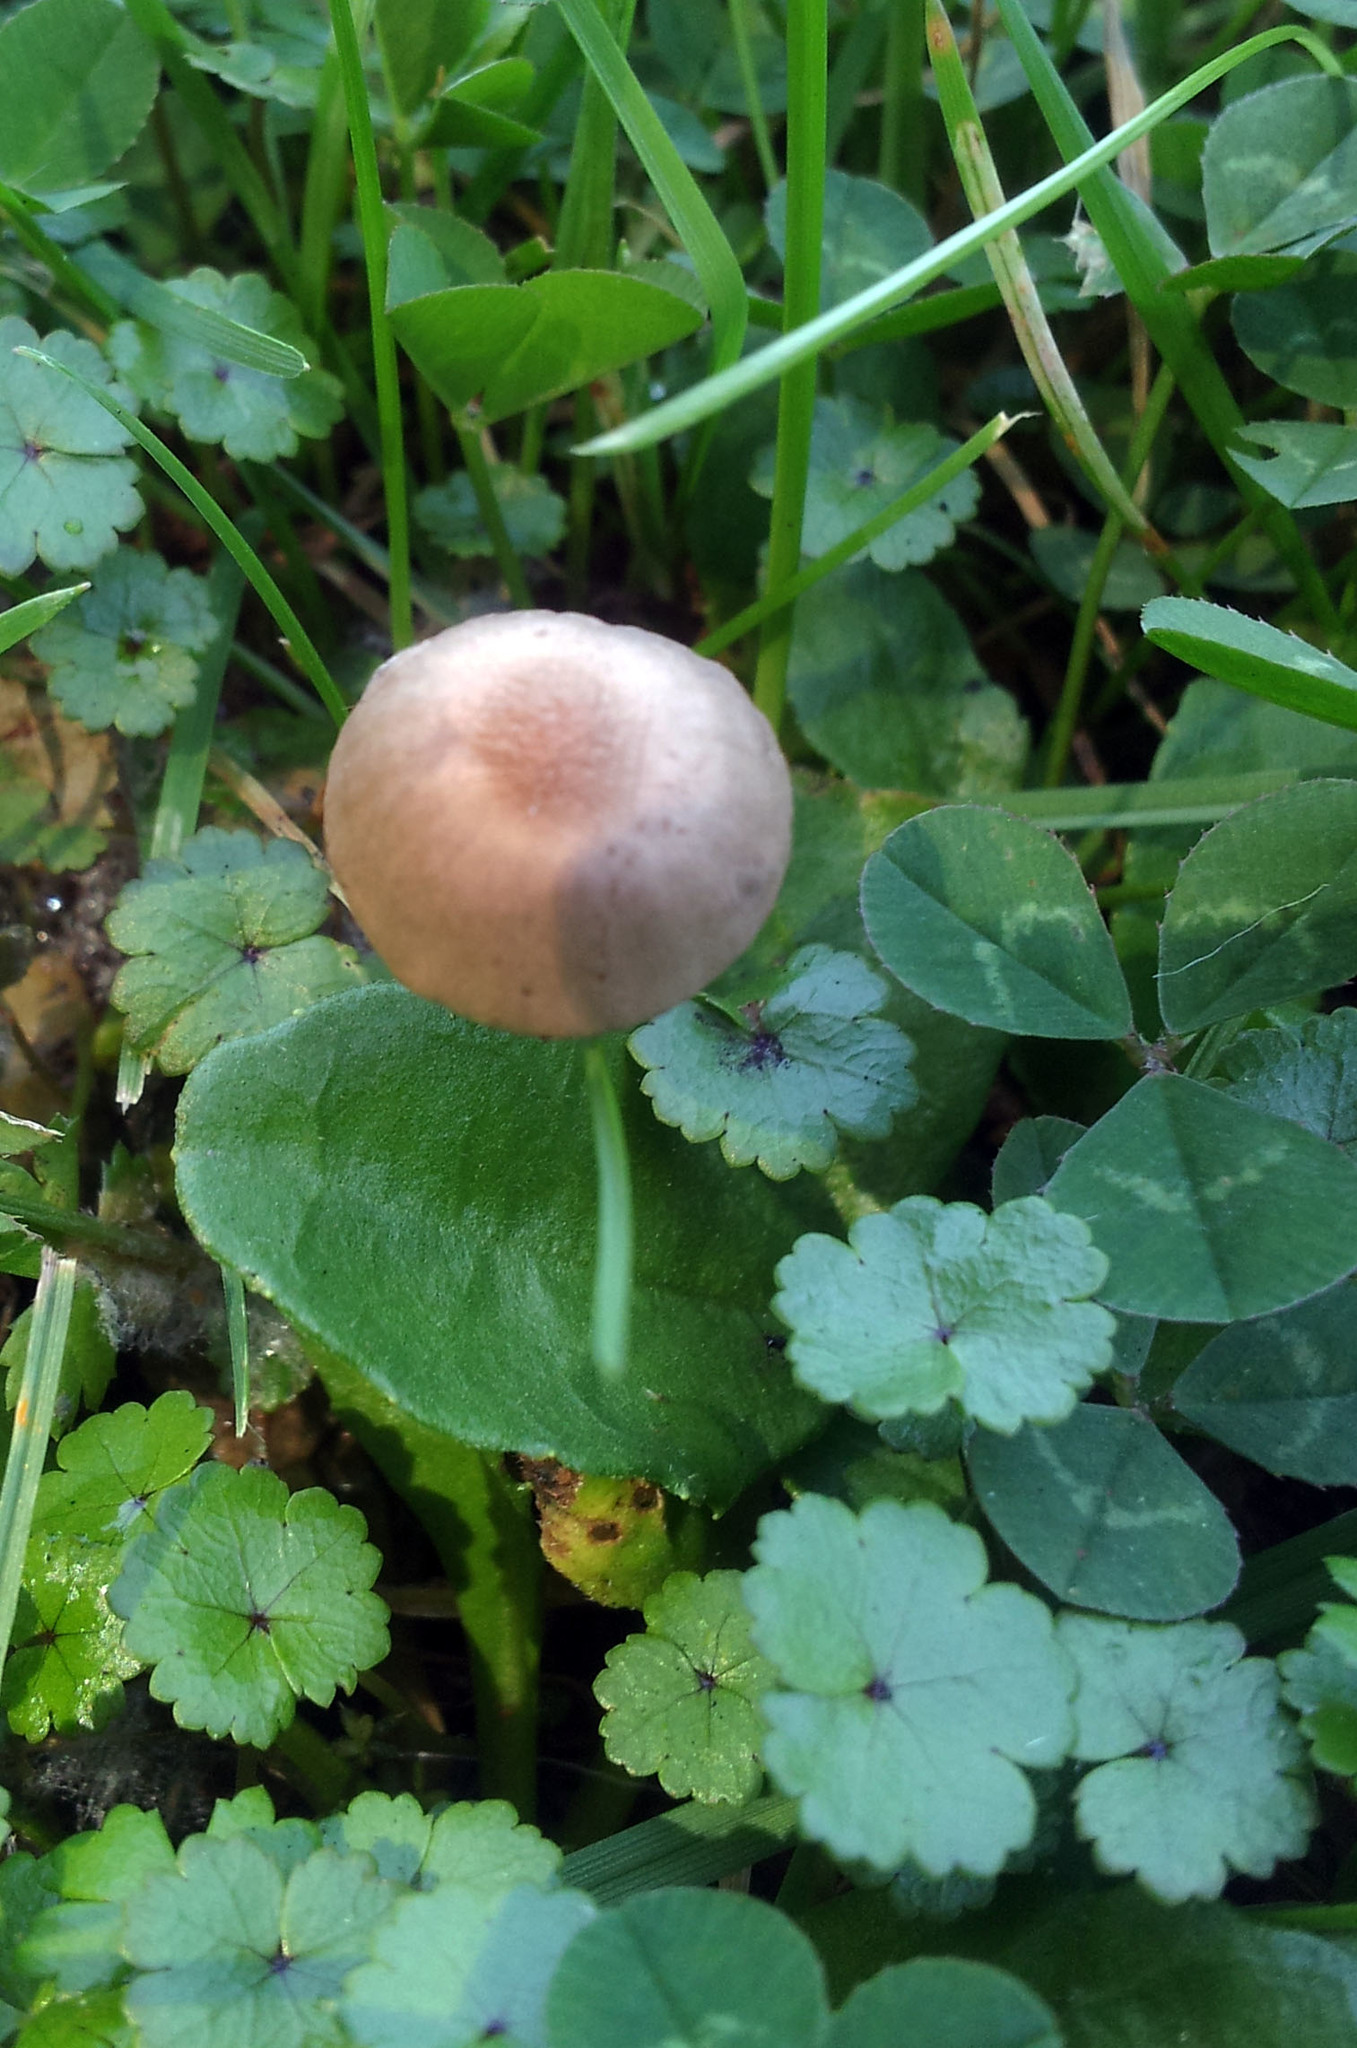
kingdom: Fungi
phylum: Basidiomycota
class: Agaricomycetes
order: Agaricales
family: Bolbitiaceae
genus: Panaeolina
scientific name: Panaeolina foenisecii
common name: Brown hay cap
